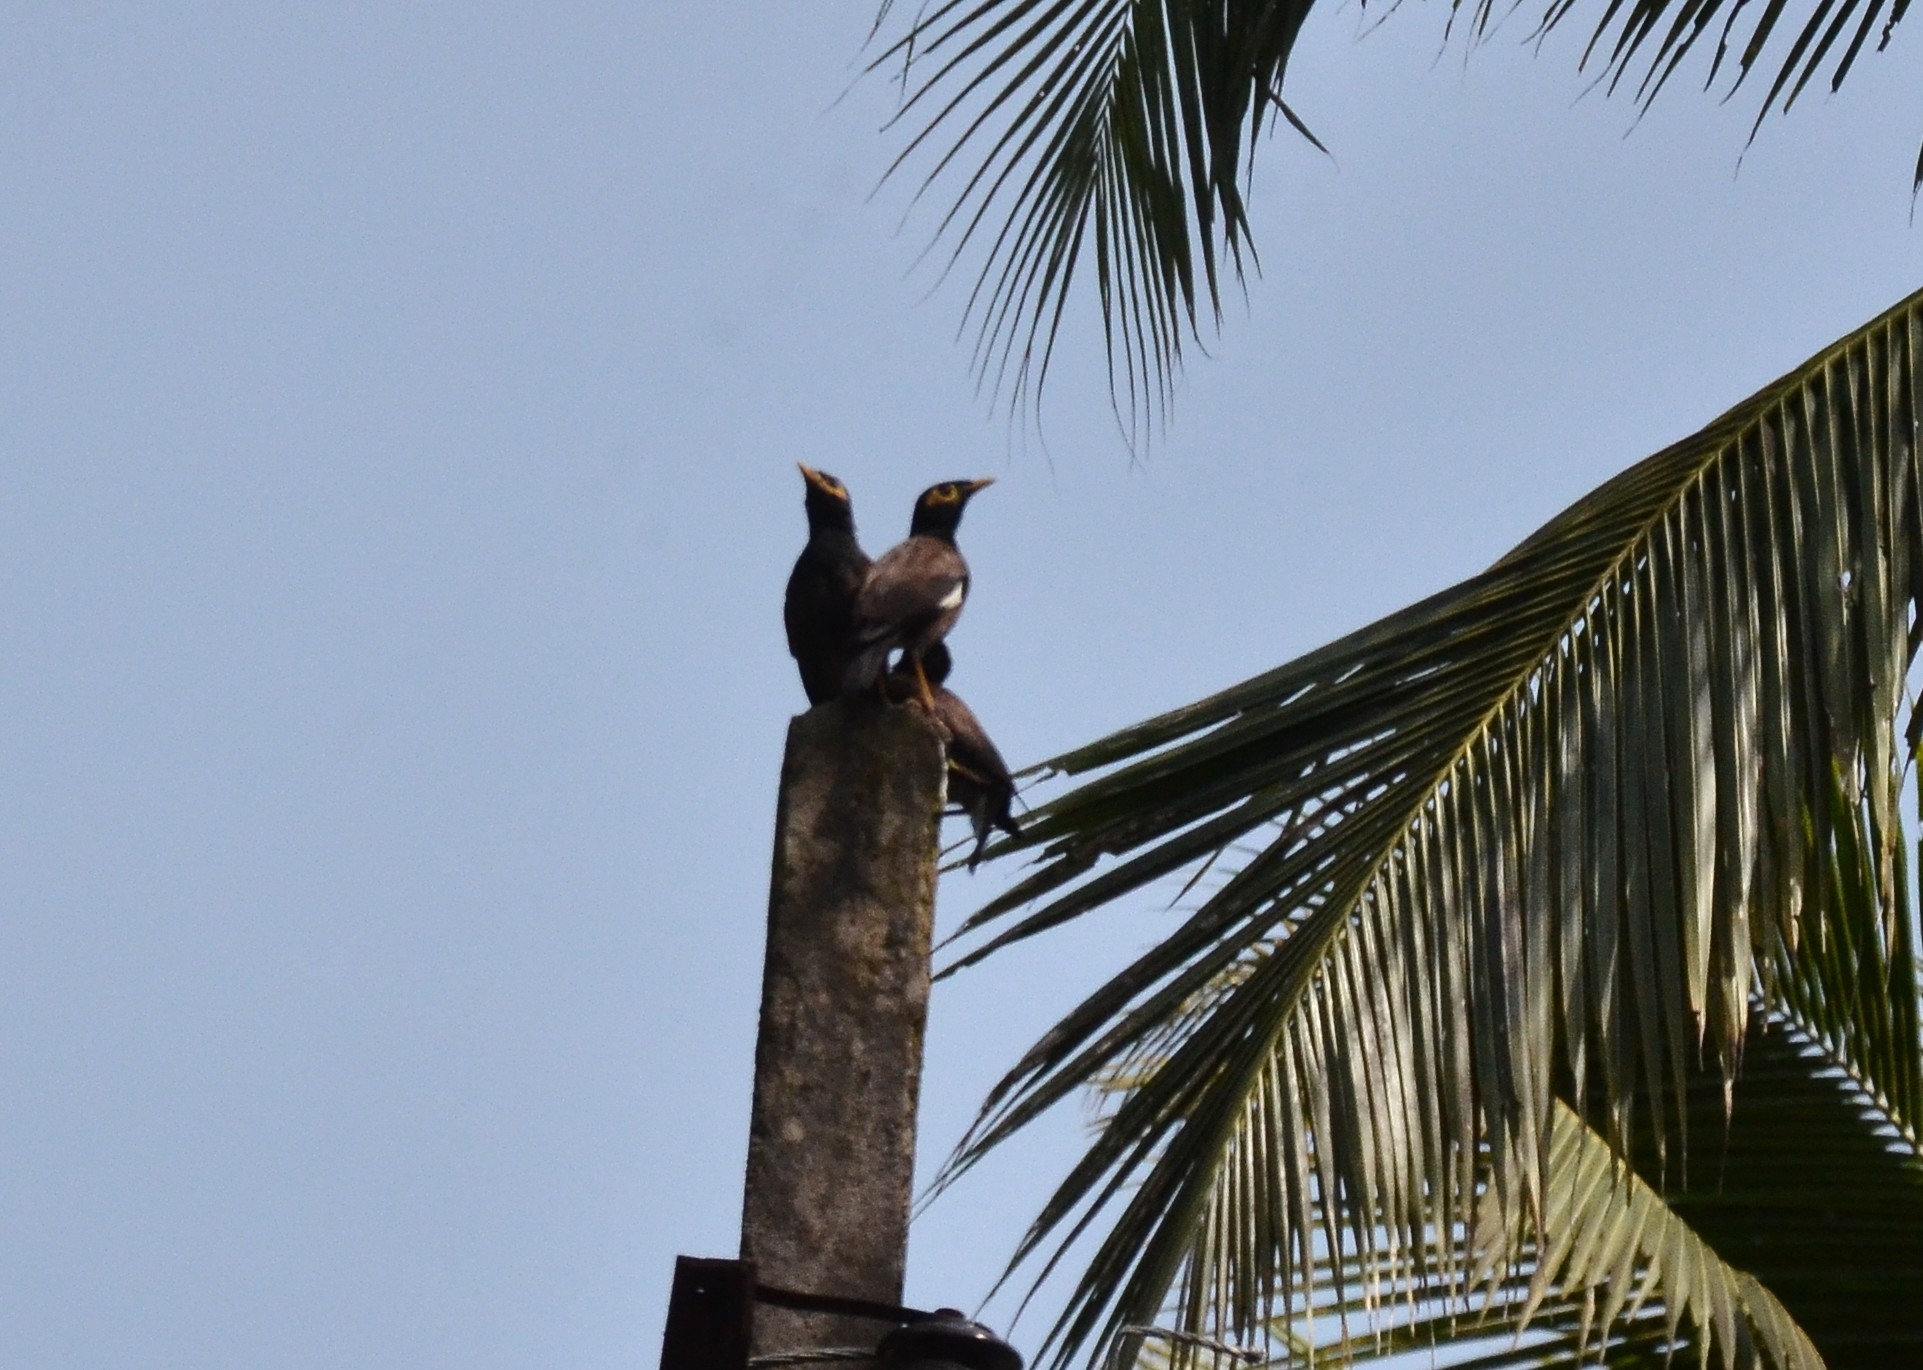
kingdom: Animalia
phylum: Chordata
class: Aves
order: Passeriformes
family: Sturnidae
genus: Acridotheres
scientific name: Acridotheres tristis
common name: Common myna
